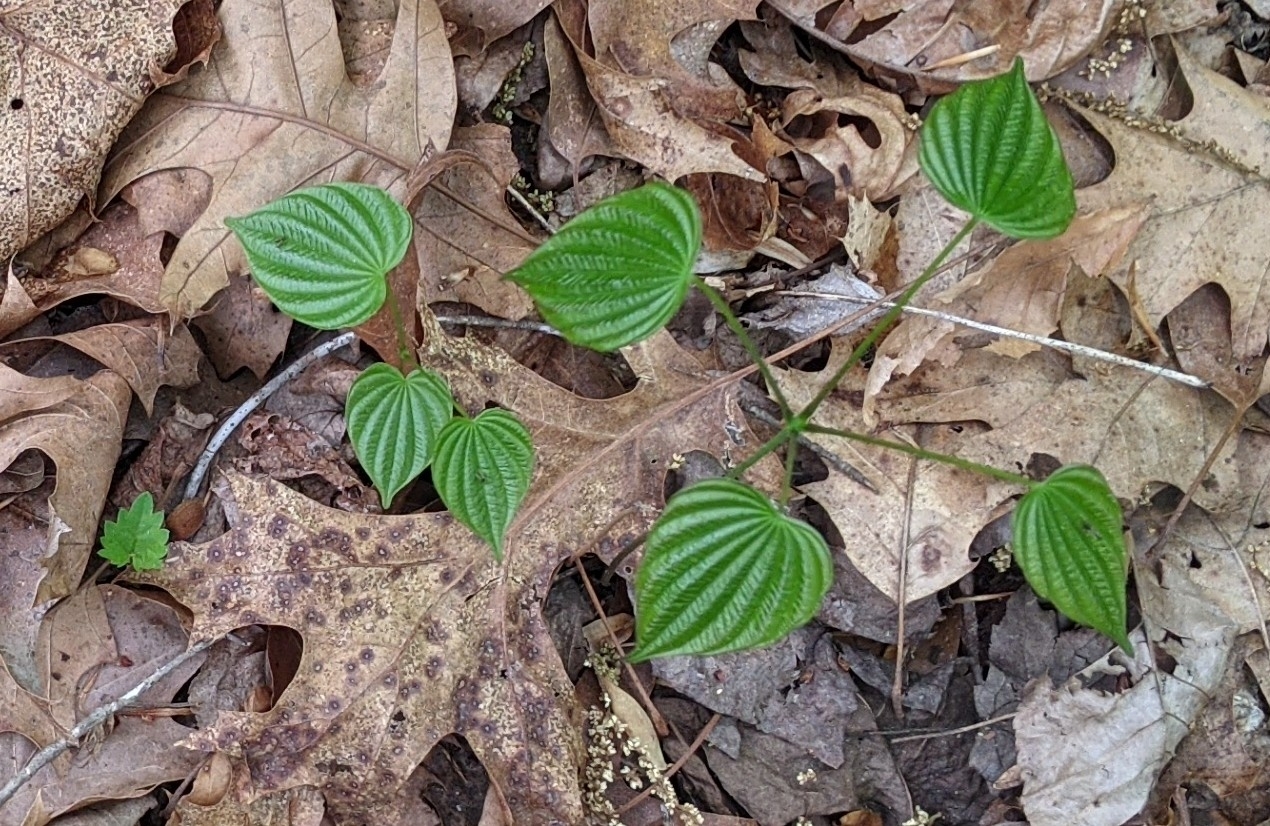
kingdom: Plantae
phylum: Tracheophyta
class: Liliopsida
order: Dioscoreales
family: Dioscoreaceae
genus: Dioscorea
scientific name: Dioscorea villosa
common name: Wild yam
